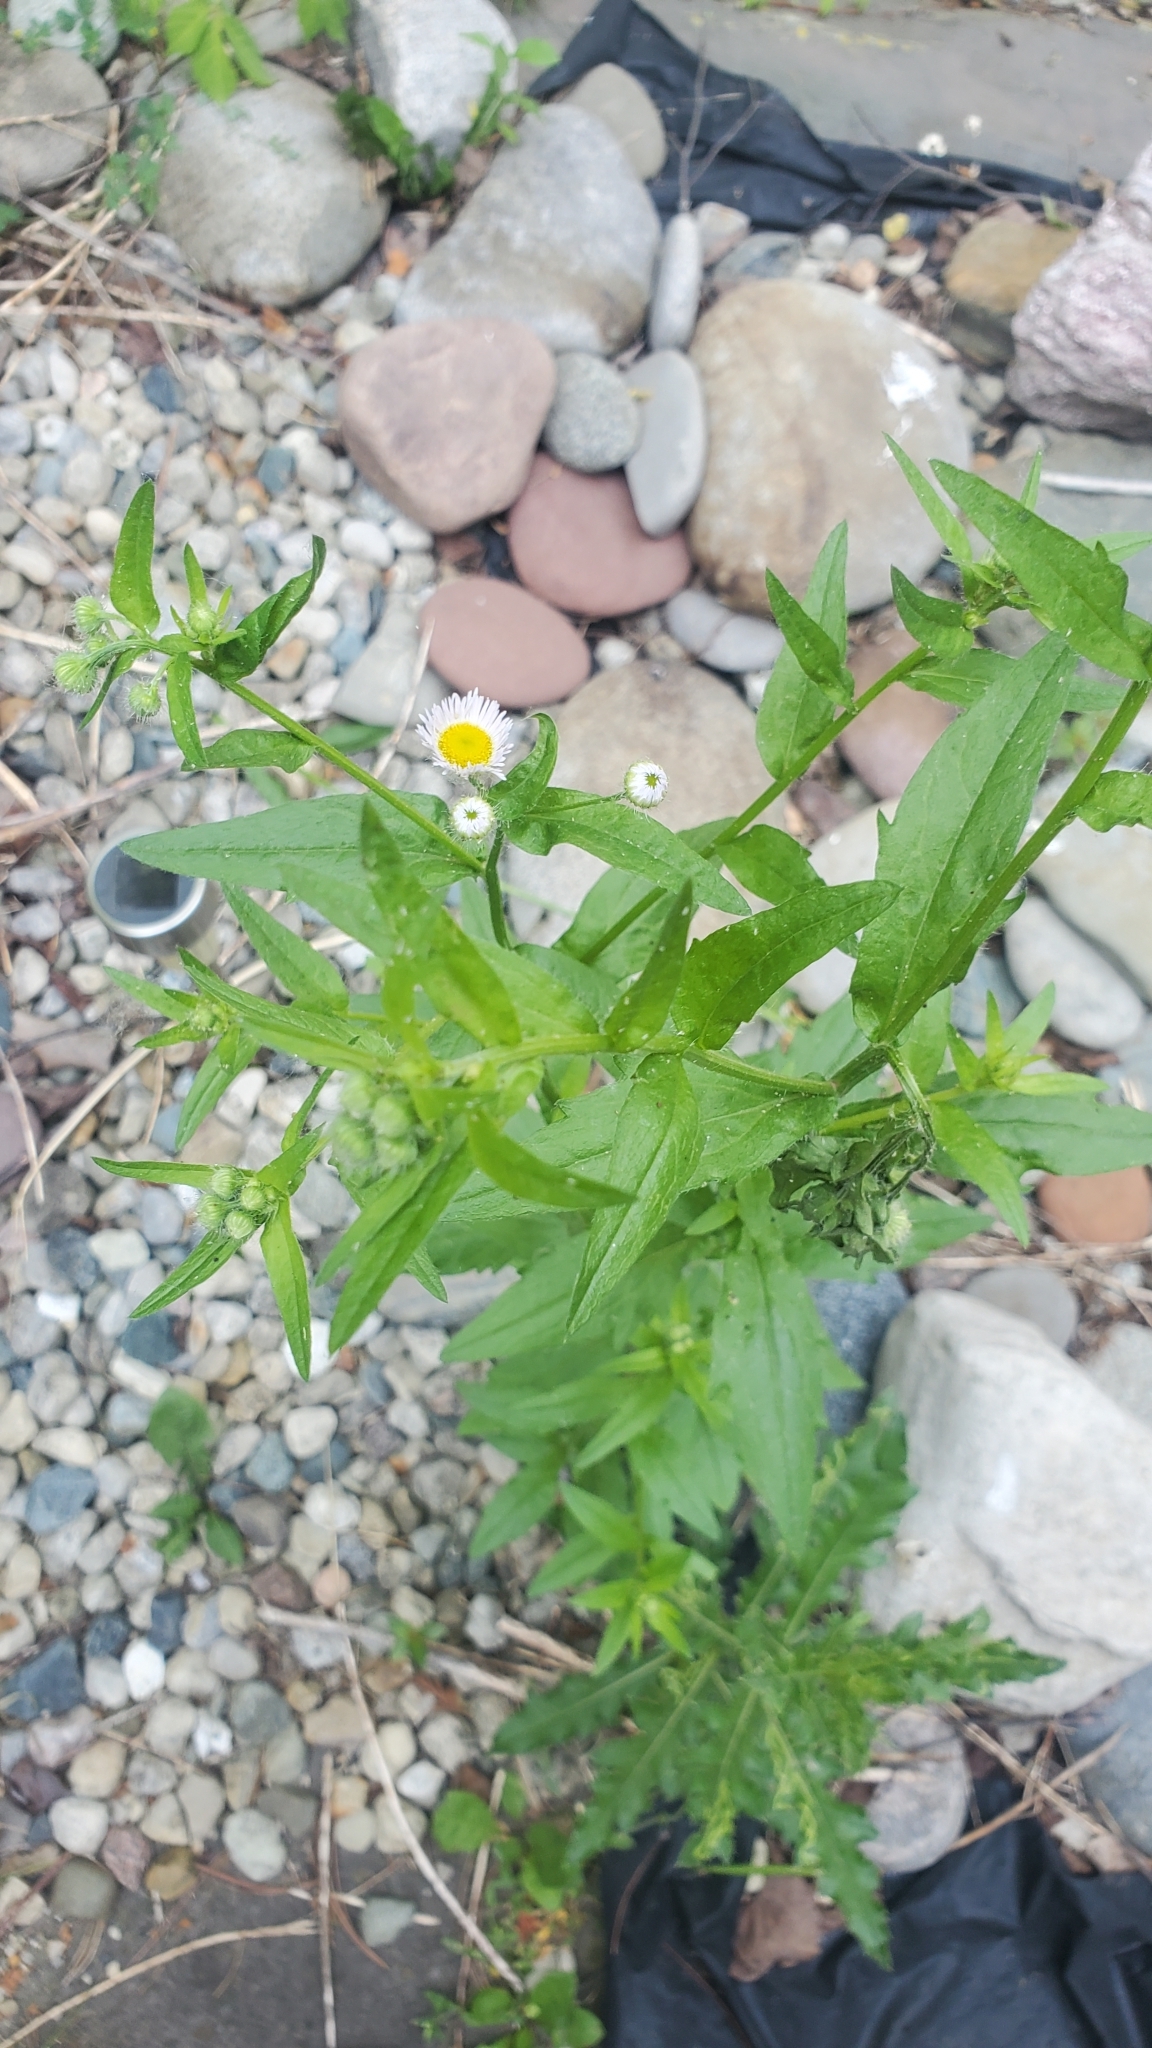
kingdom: Plantae
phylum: Tracheophyta
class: Magnoliopsida
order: Asterales
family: Asteraceae
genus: Erigeron
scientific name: Erigeron annuus
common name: Tall fleabane
